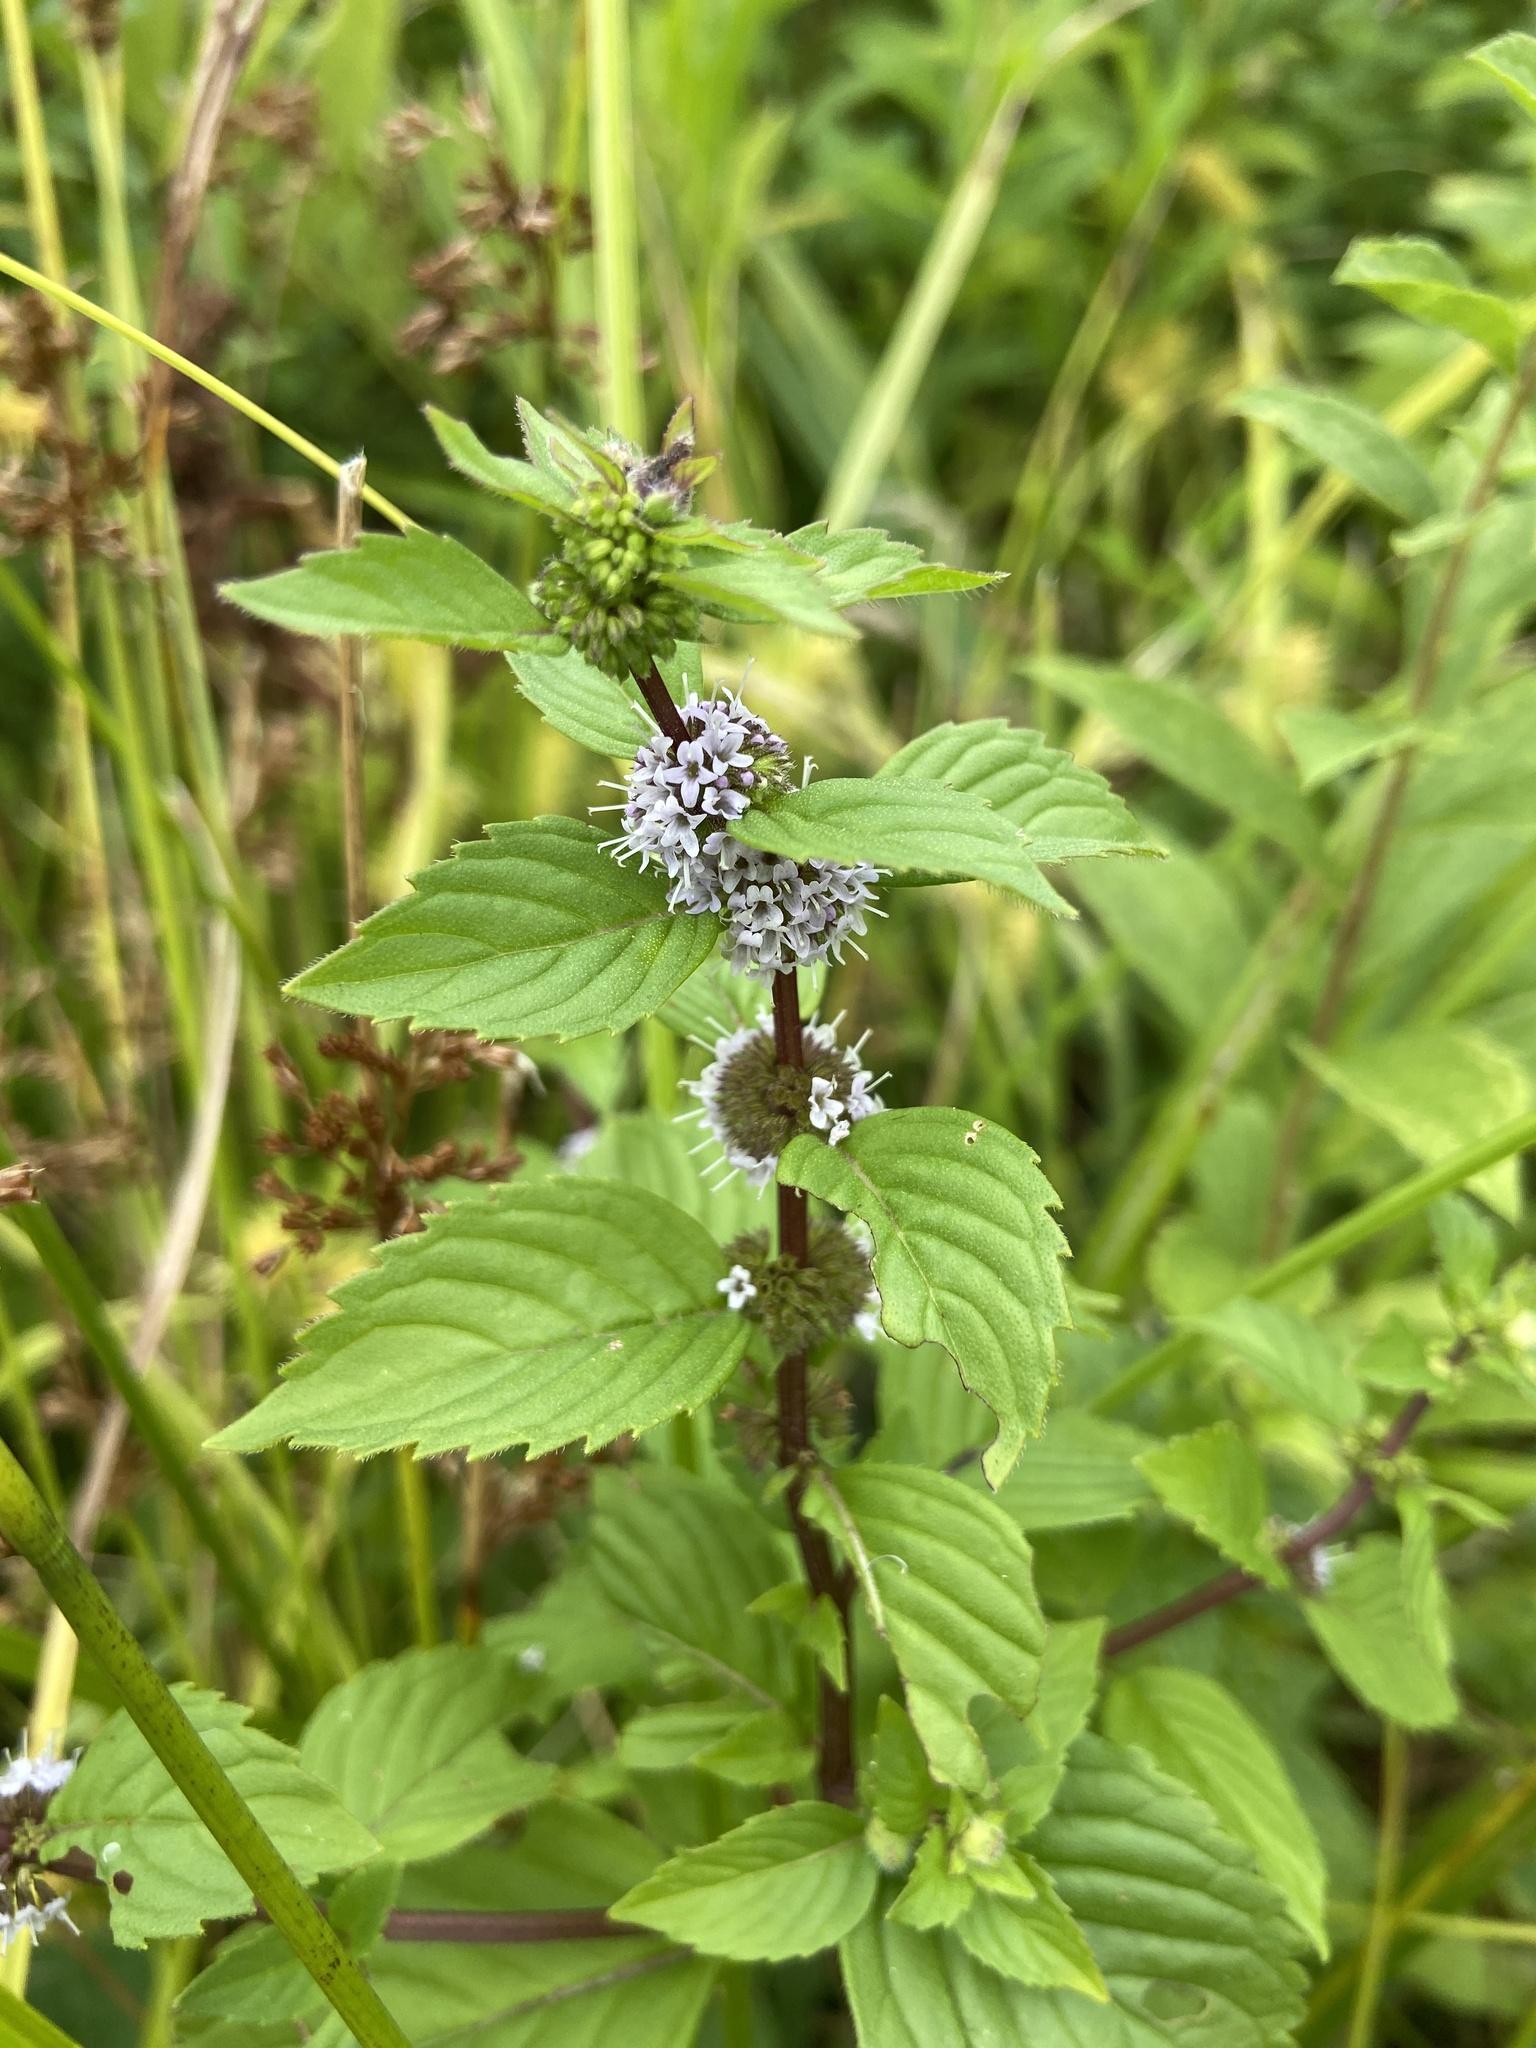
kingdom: Plantae
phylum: Tracheophyta
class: Magnoliopsida
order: Lamiales
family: Lamiaceae
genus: Mentha
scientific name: Mentha canadensis
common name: American corn mint
